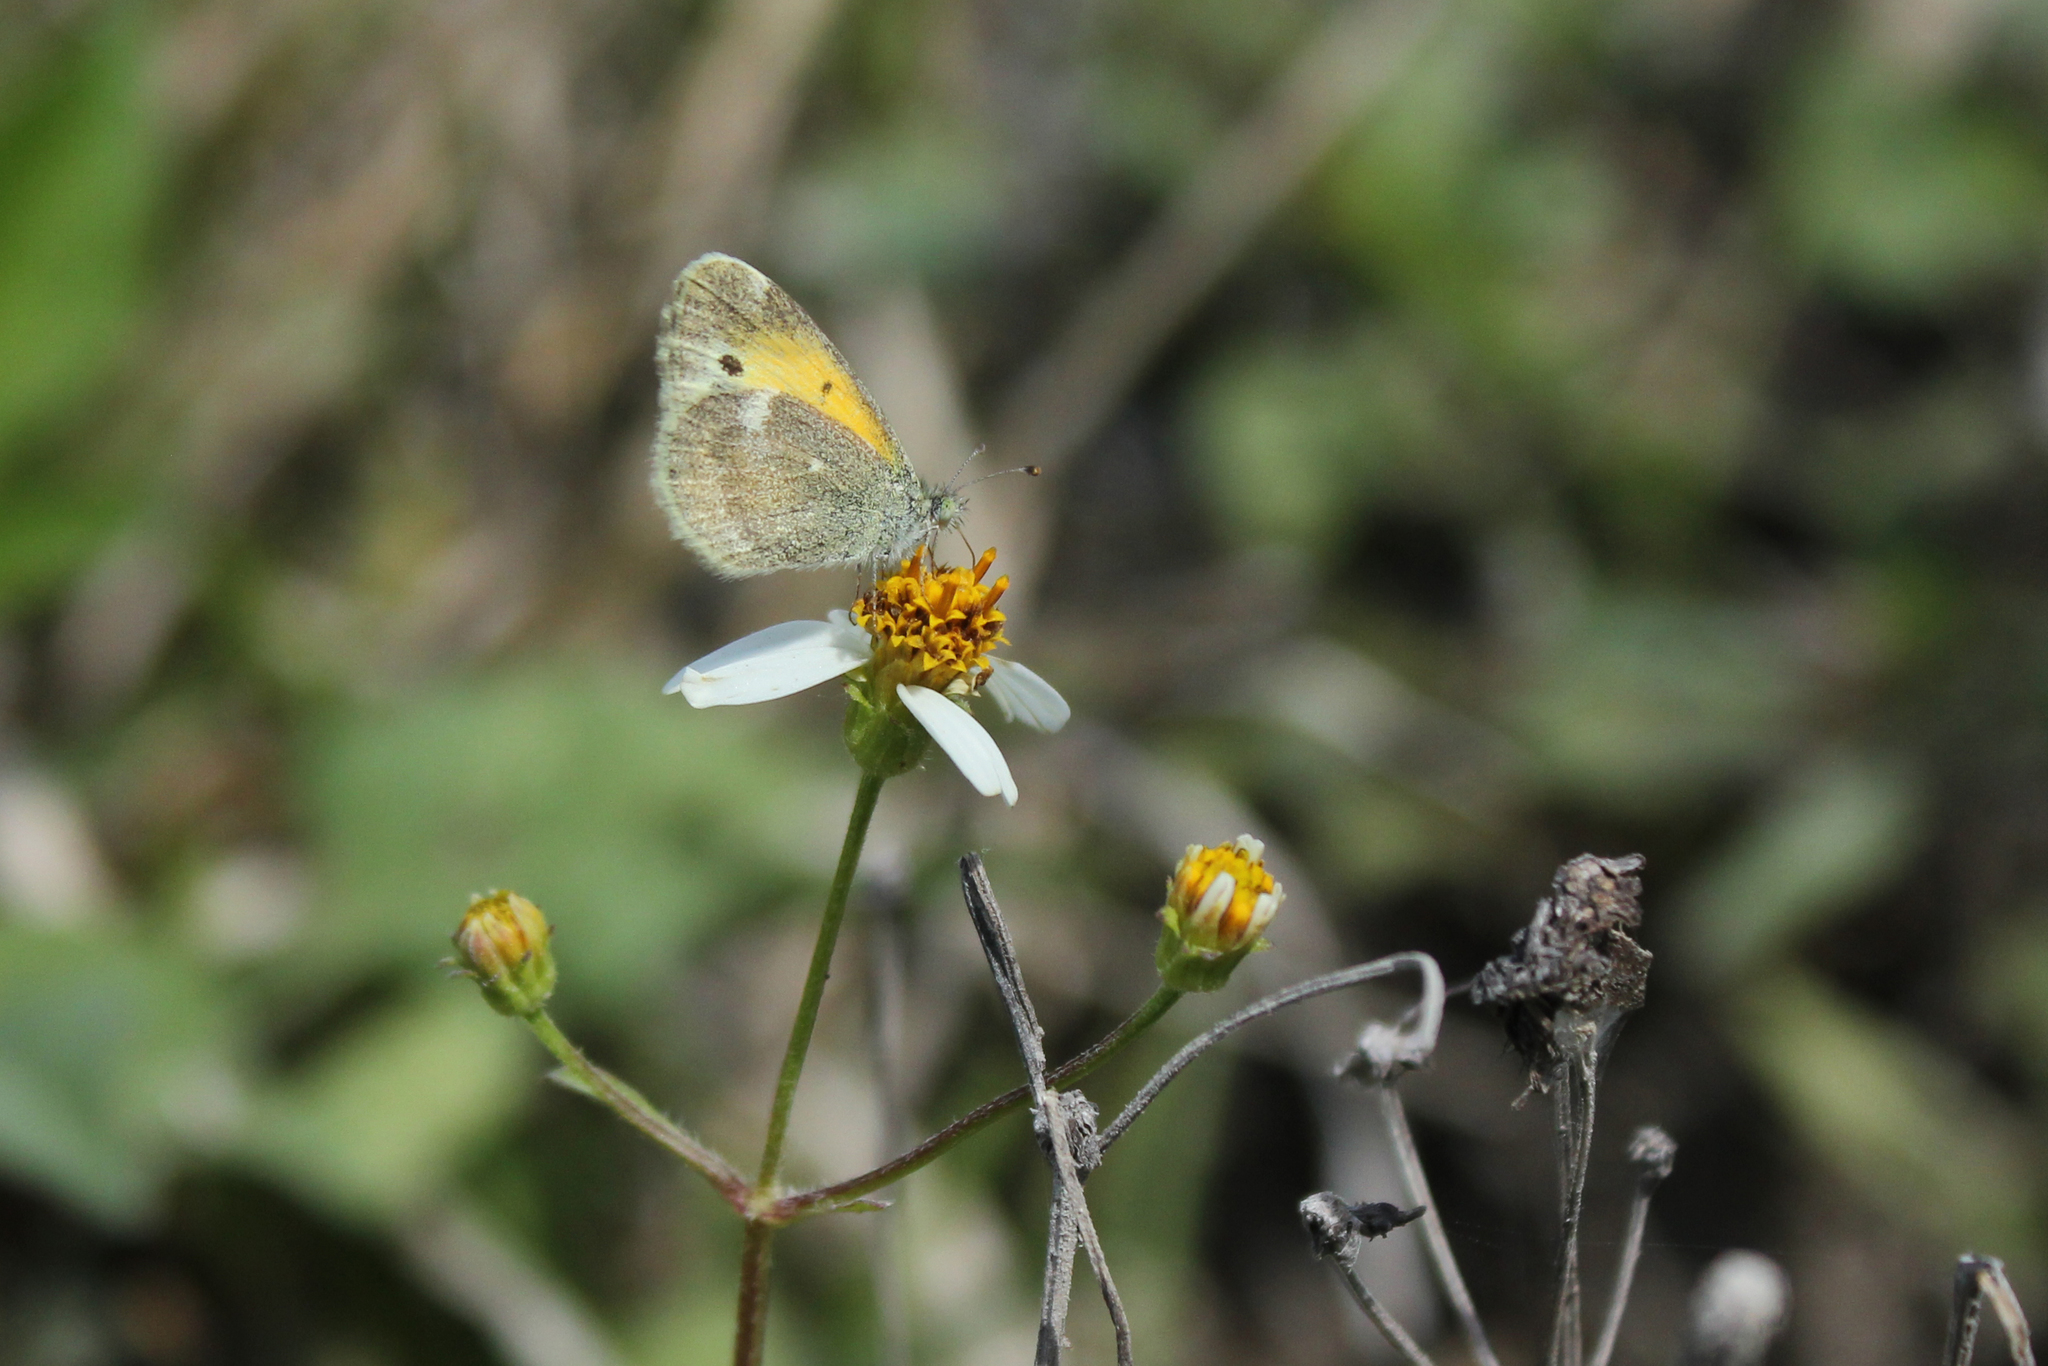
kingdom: Animalia
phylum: Arthropoda
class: Insecta
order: Lepidoptera
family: Pieridae
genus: Nathalis
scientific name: Nathalis iole
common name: Dainty sulphur
